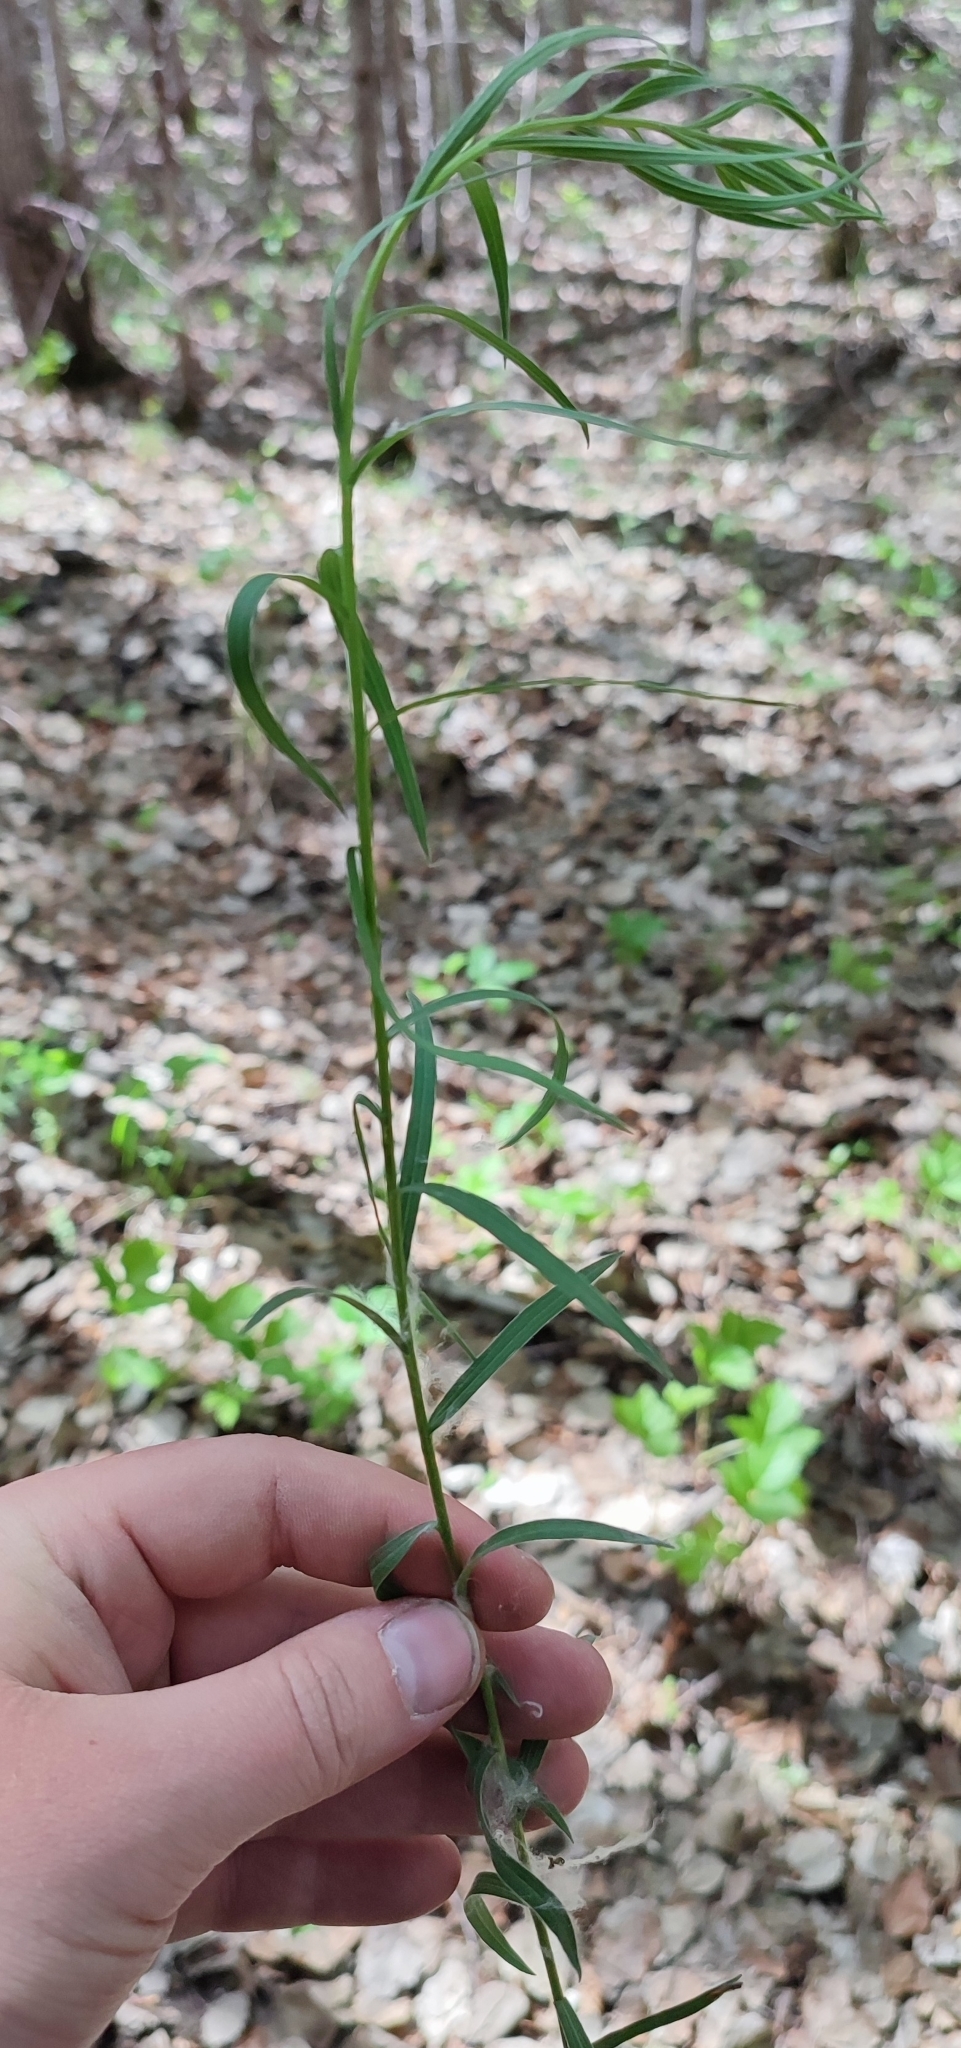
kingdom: Plantae
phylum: Tracheophyta
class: Magnoliopsida
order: Asterales
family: Asteraceae
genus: Hieracium
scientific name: Hieracium umbellatum
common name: Northern hawkweed
